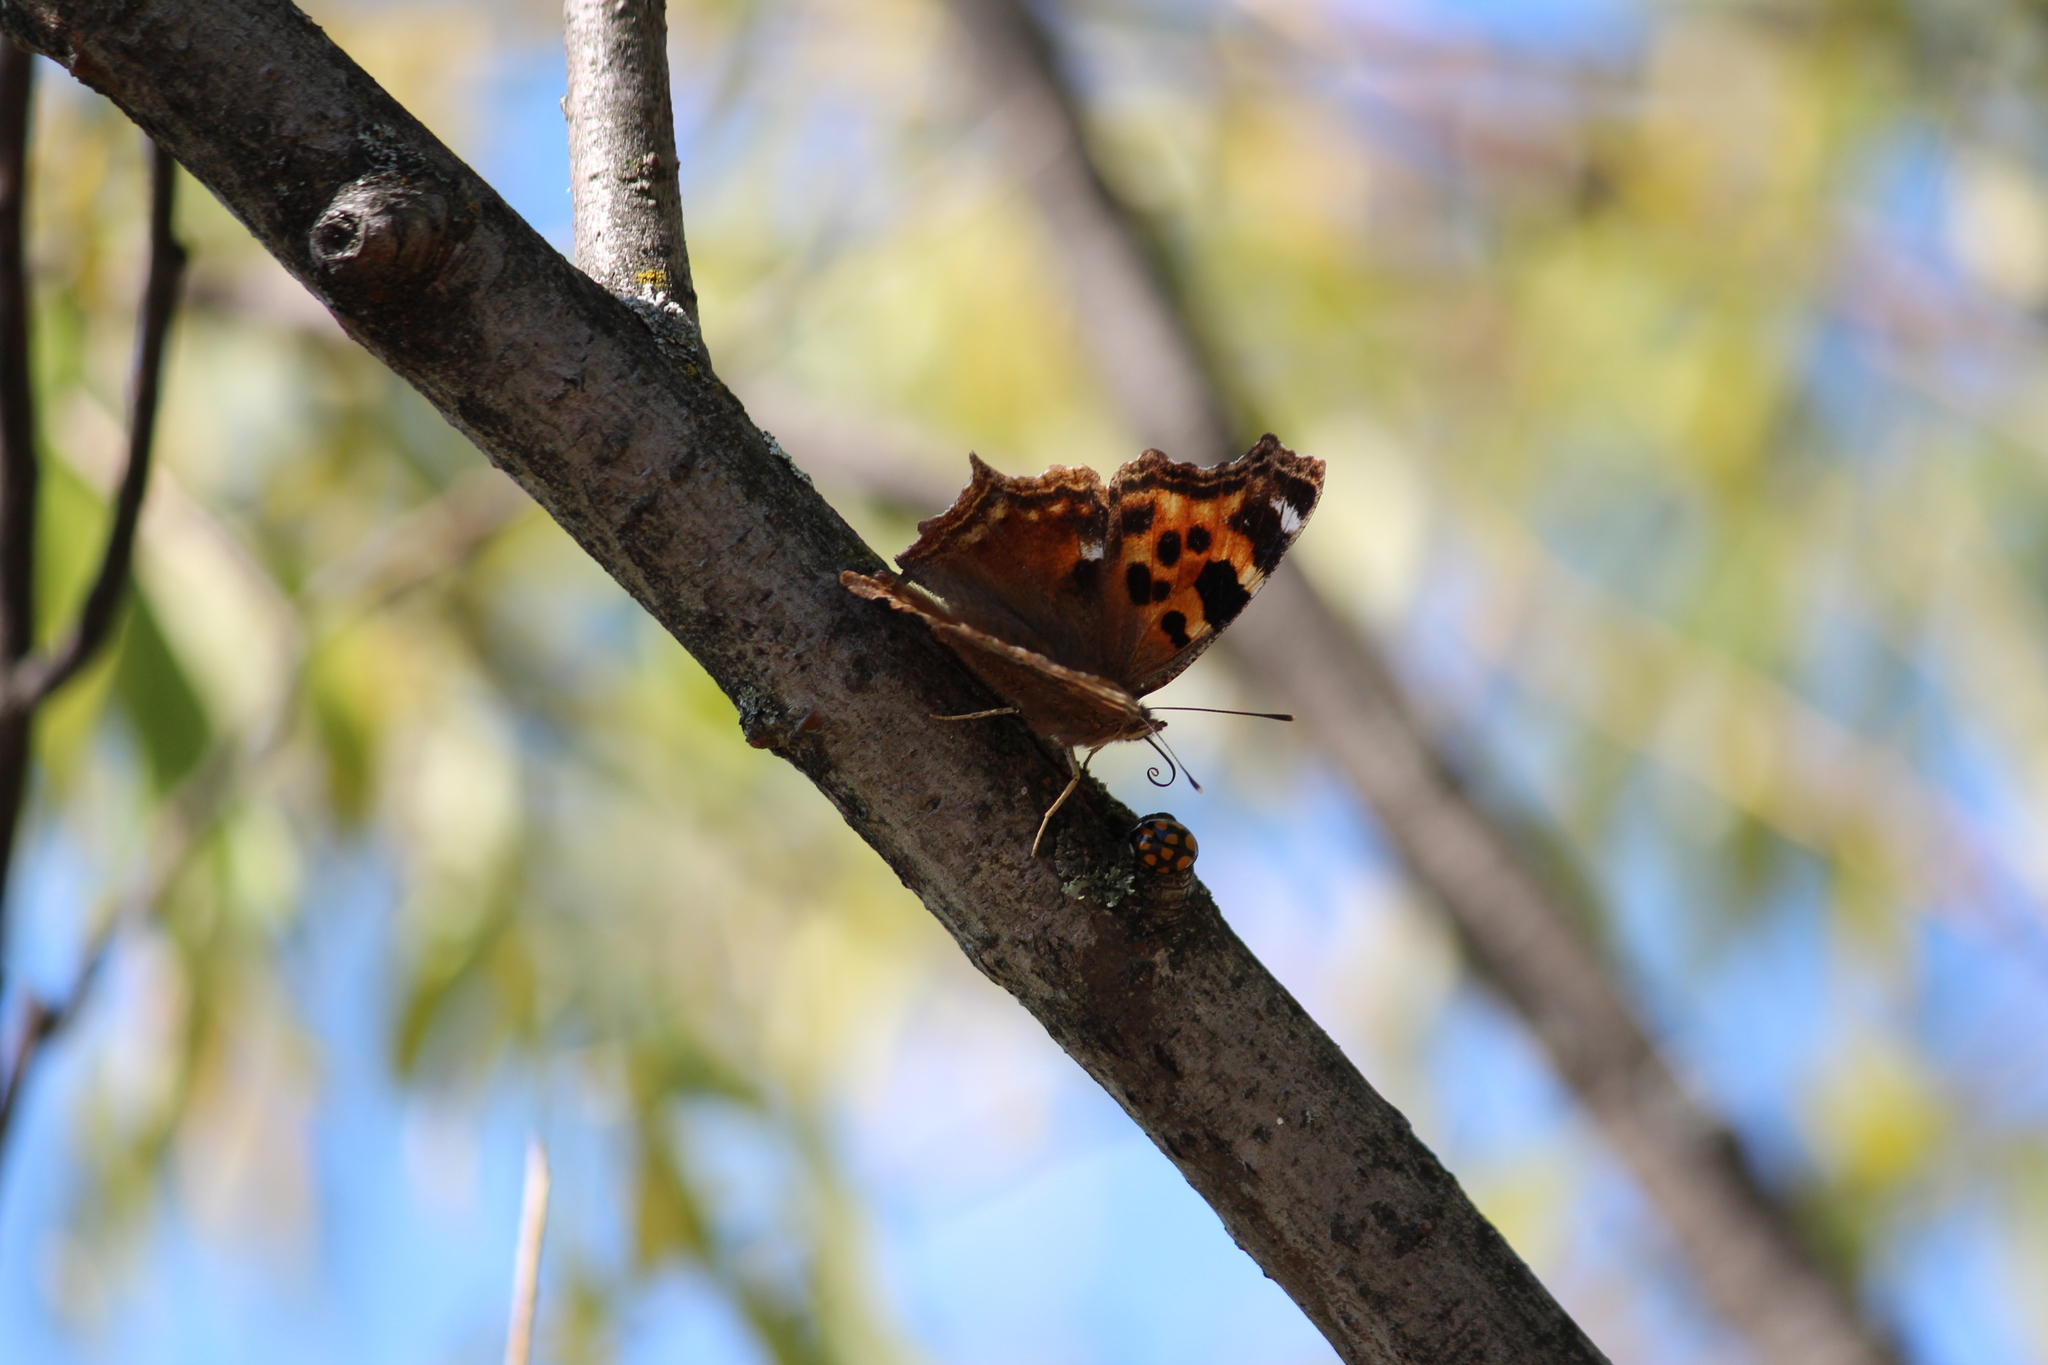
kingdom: Animalia
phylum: Arthropoda
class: Insecta
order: Coleoptera
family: Coccinellidae
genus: Harmonia
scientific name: Harmonia axyridis
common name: Harlequin ladybird
